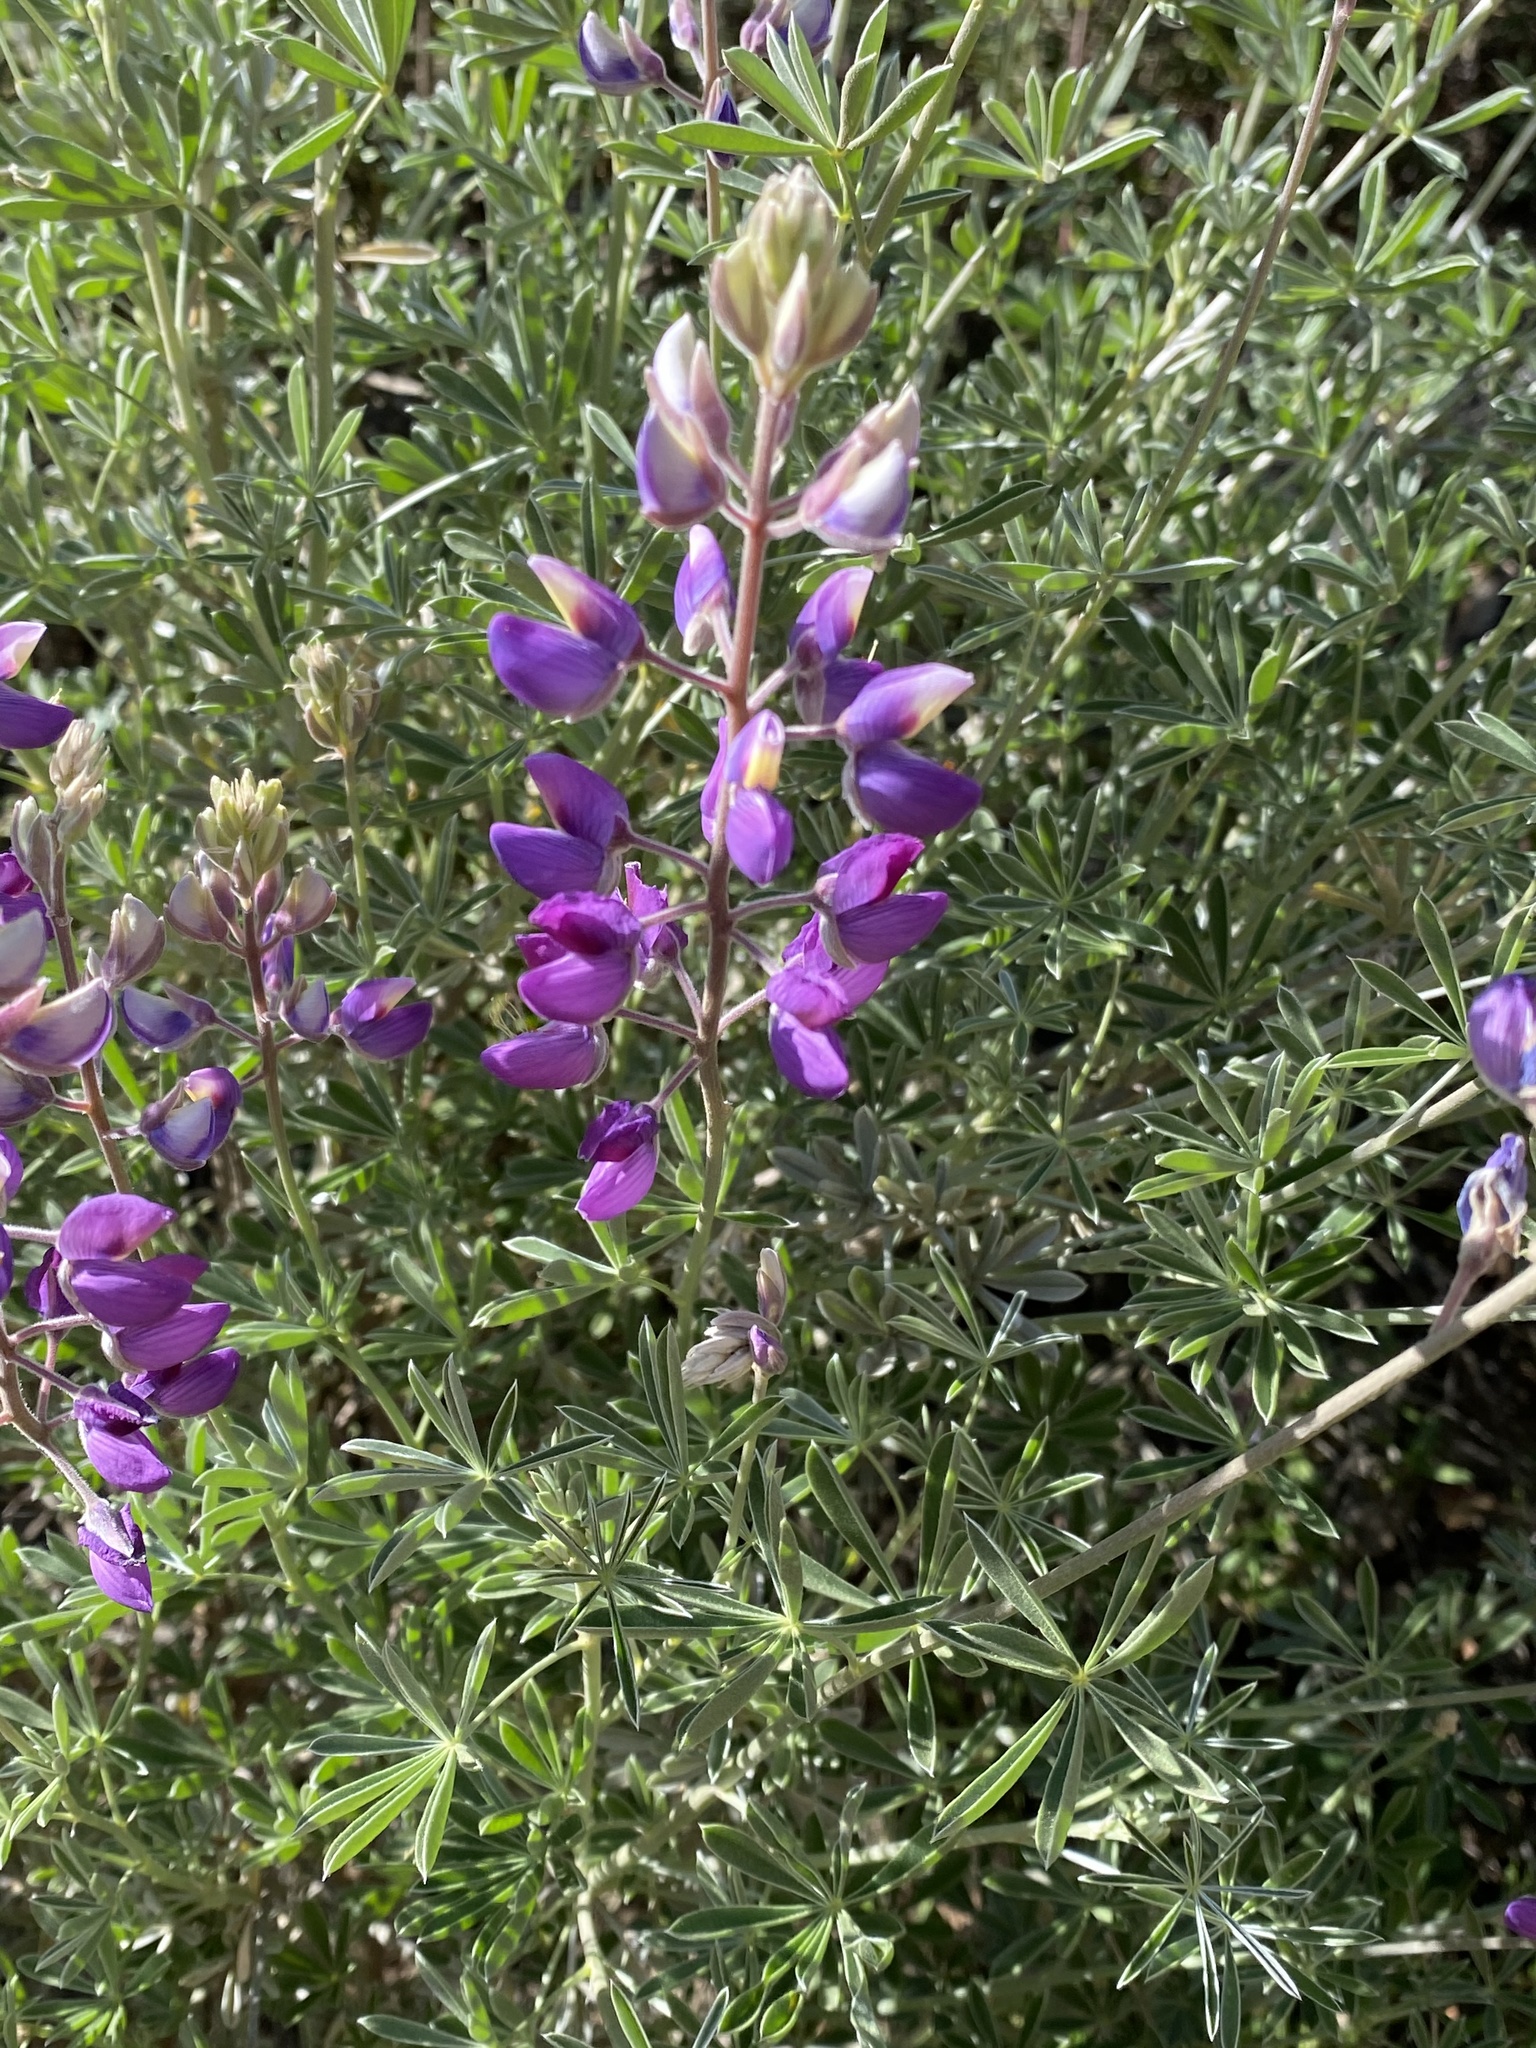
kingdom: Plantae
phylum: Tracheophyta
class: Magnoliopsida
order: Fabales
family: Fabaceae
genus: Lupinus
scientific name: Lupinus albifrons
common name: Foothill lupine
